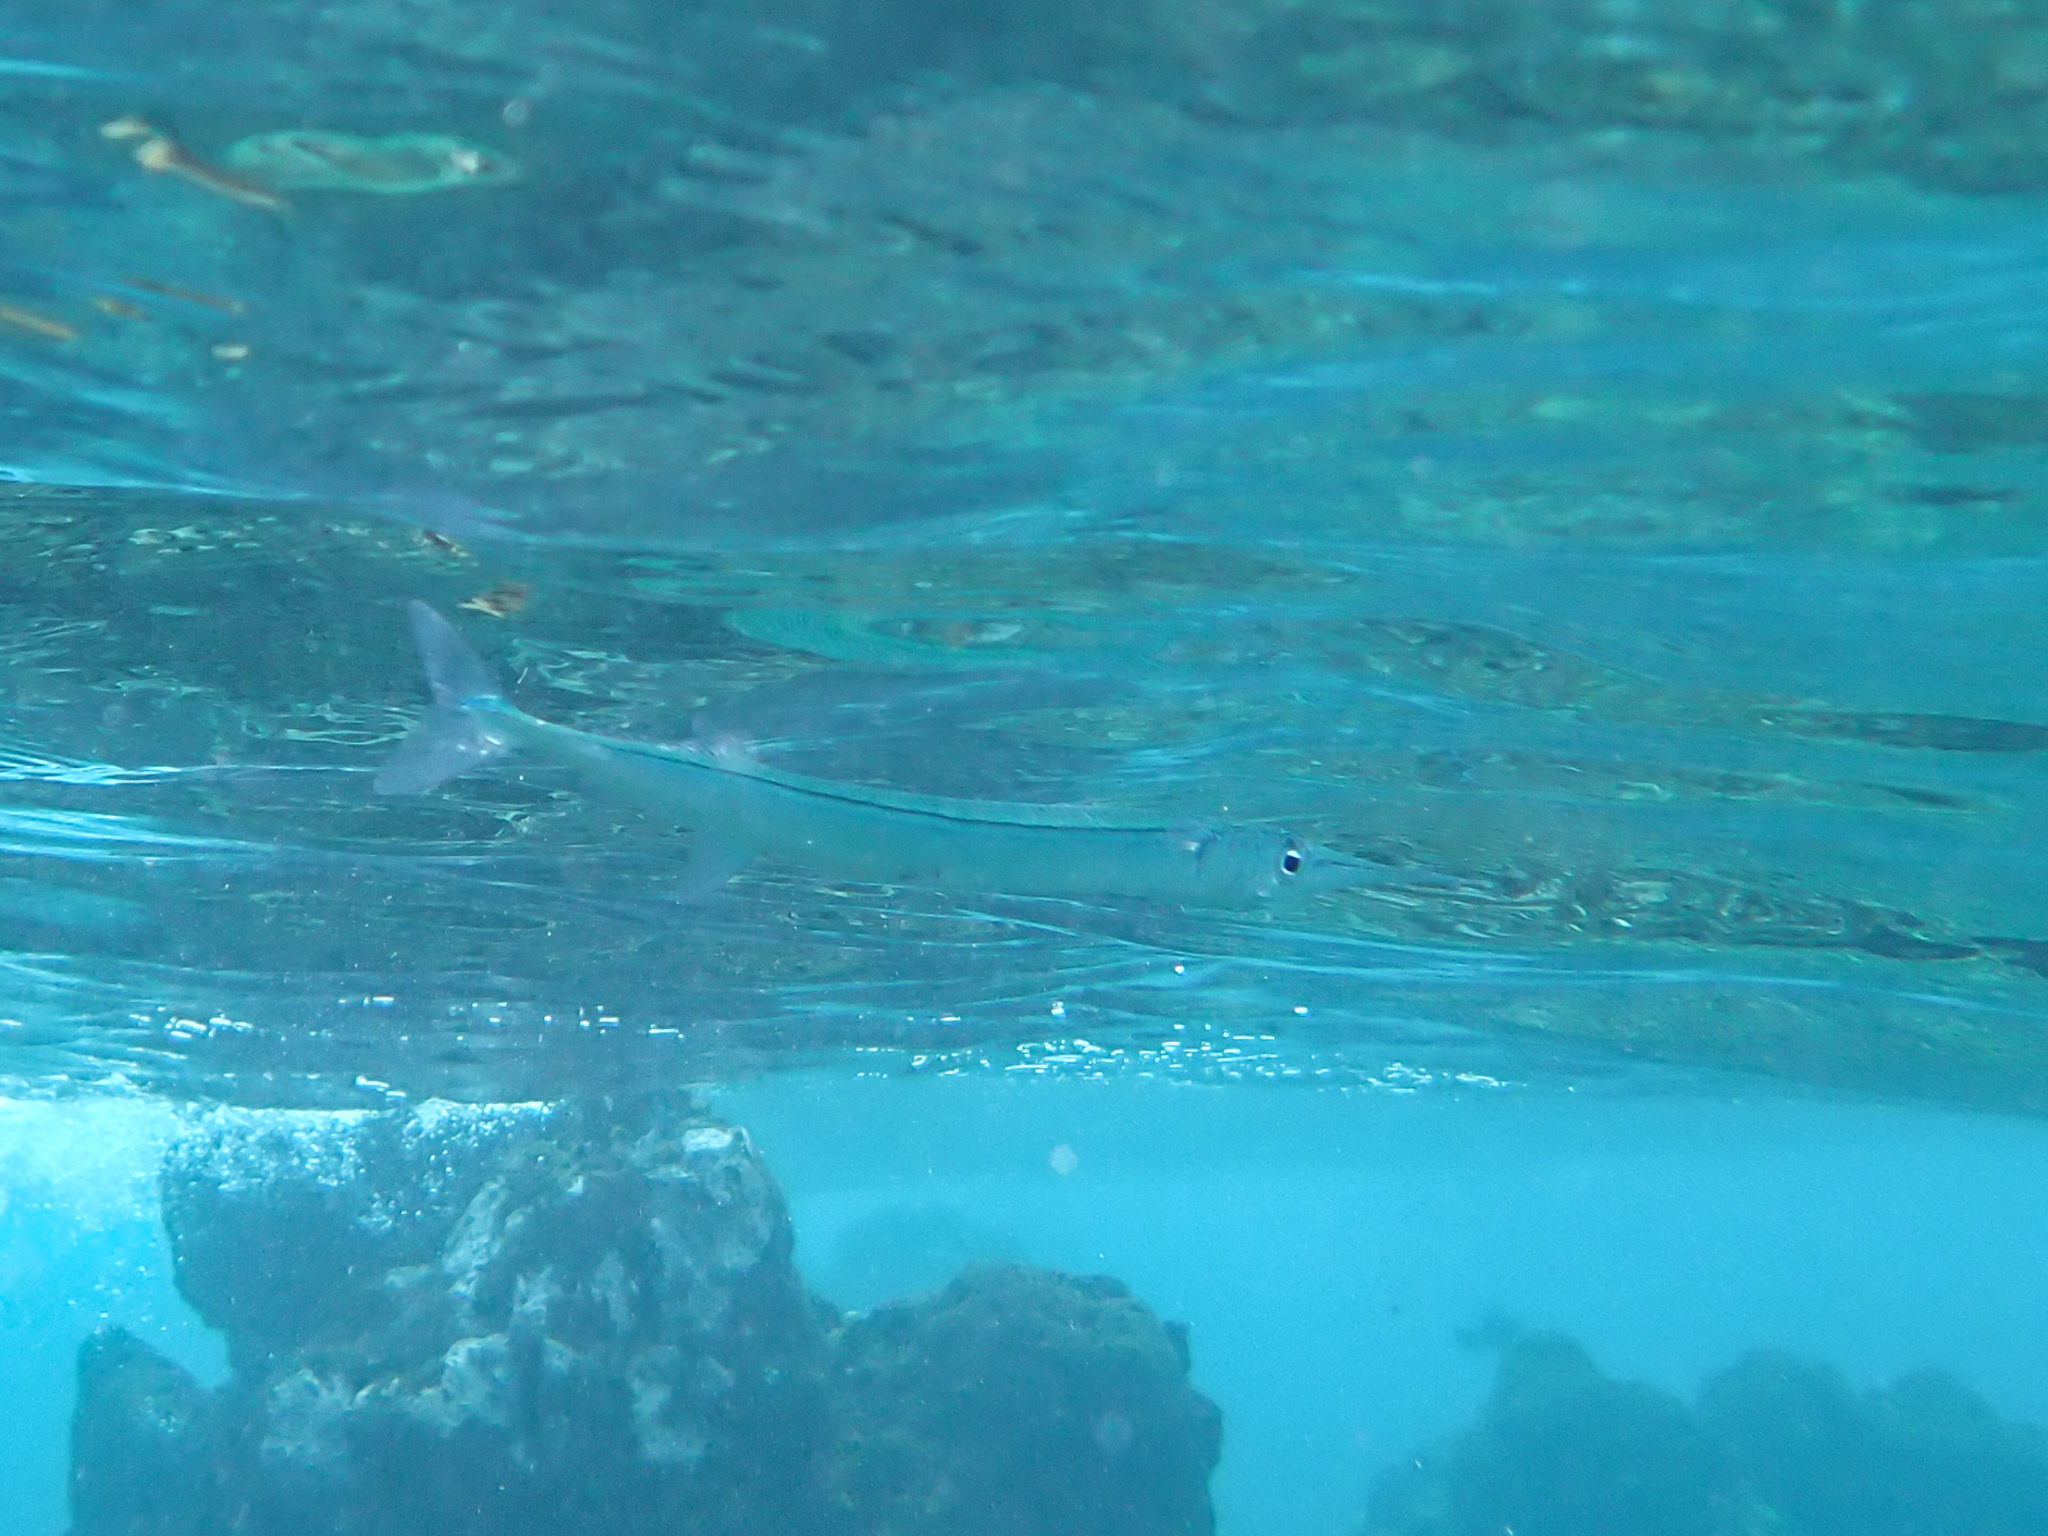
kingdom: Animalia
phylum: Chordata
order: Beloniformes
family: Belonidae
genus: Platybelone
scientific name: Platybelone argalus
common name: Keeltail needlefish
